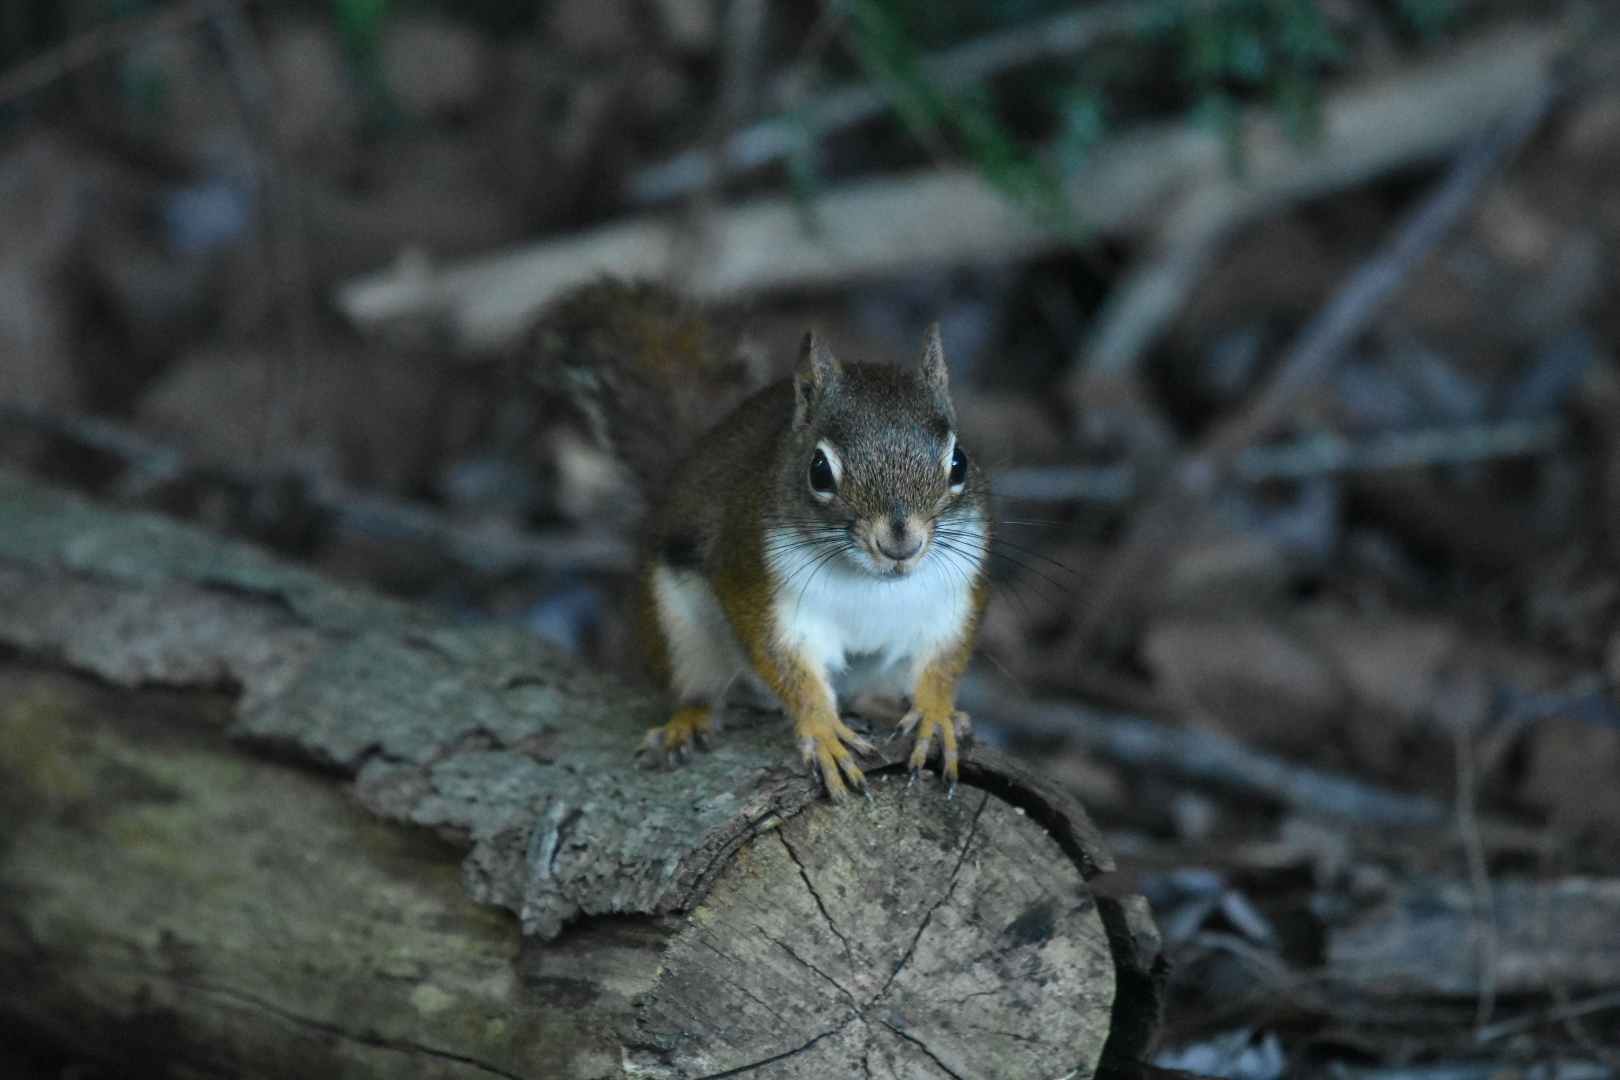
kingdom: Animalia
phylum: Chordata
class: Mammalia
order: Rodentia
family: Sciuridae
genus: Tamiasciurus
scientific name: Tamiasciurus hudsonicus
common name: Red squirrel
